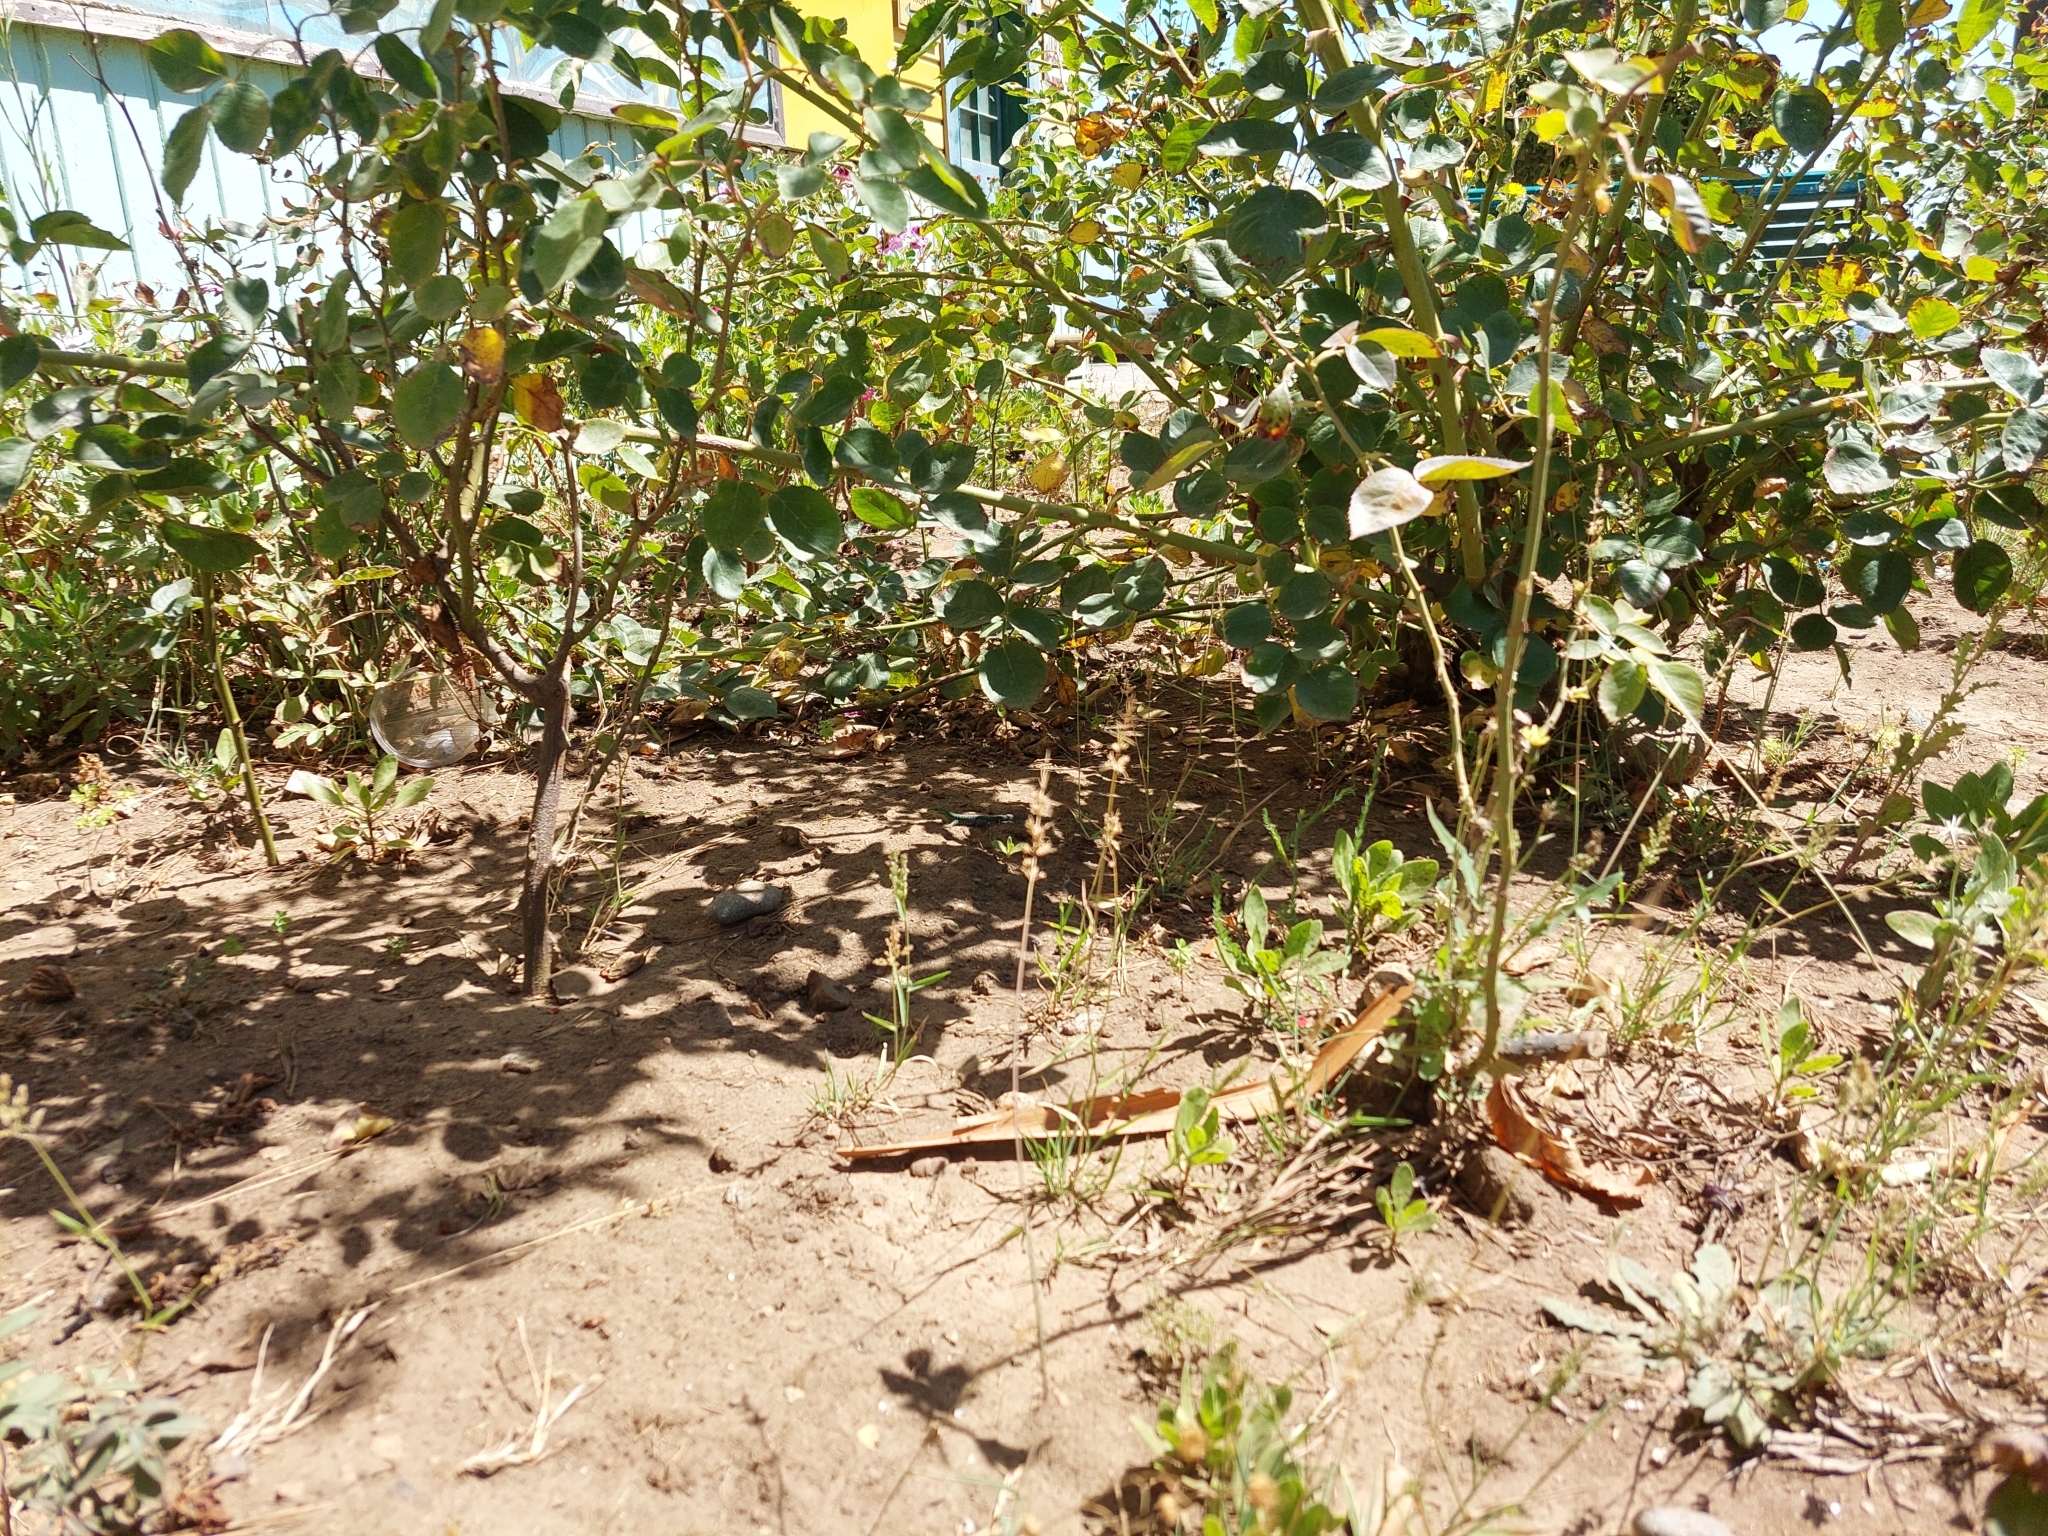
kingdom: Animalia
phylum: Chordata
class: Squamata
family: Liolaemidae
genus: Liolaemus
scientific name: Liolaemus tenuis
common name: Thin tree iguana
